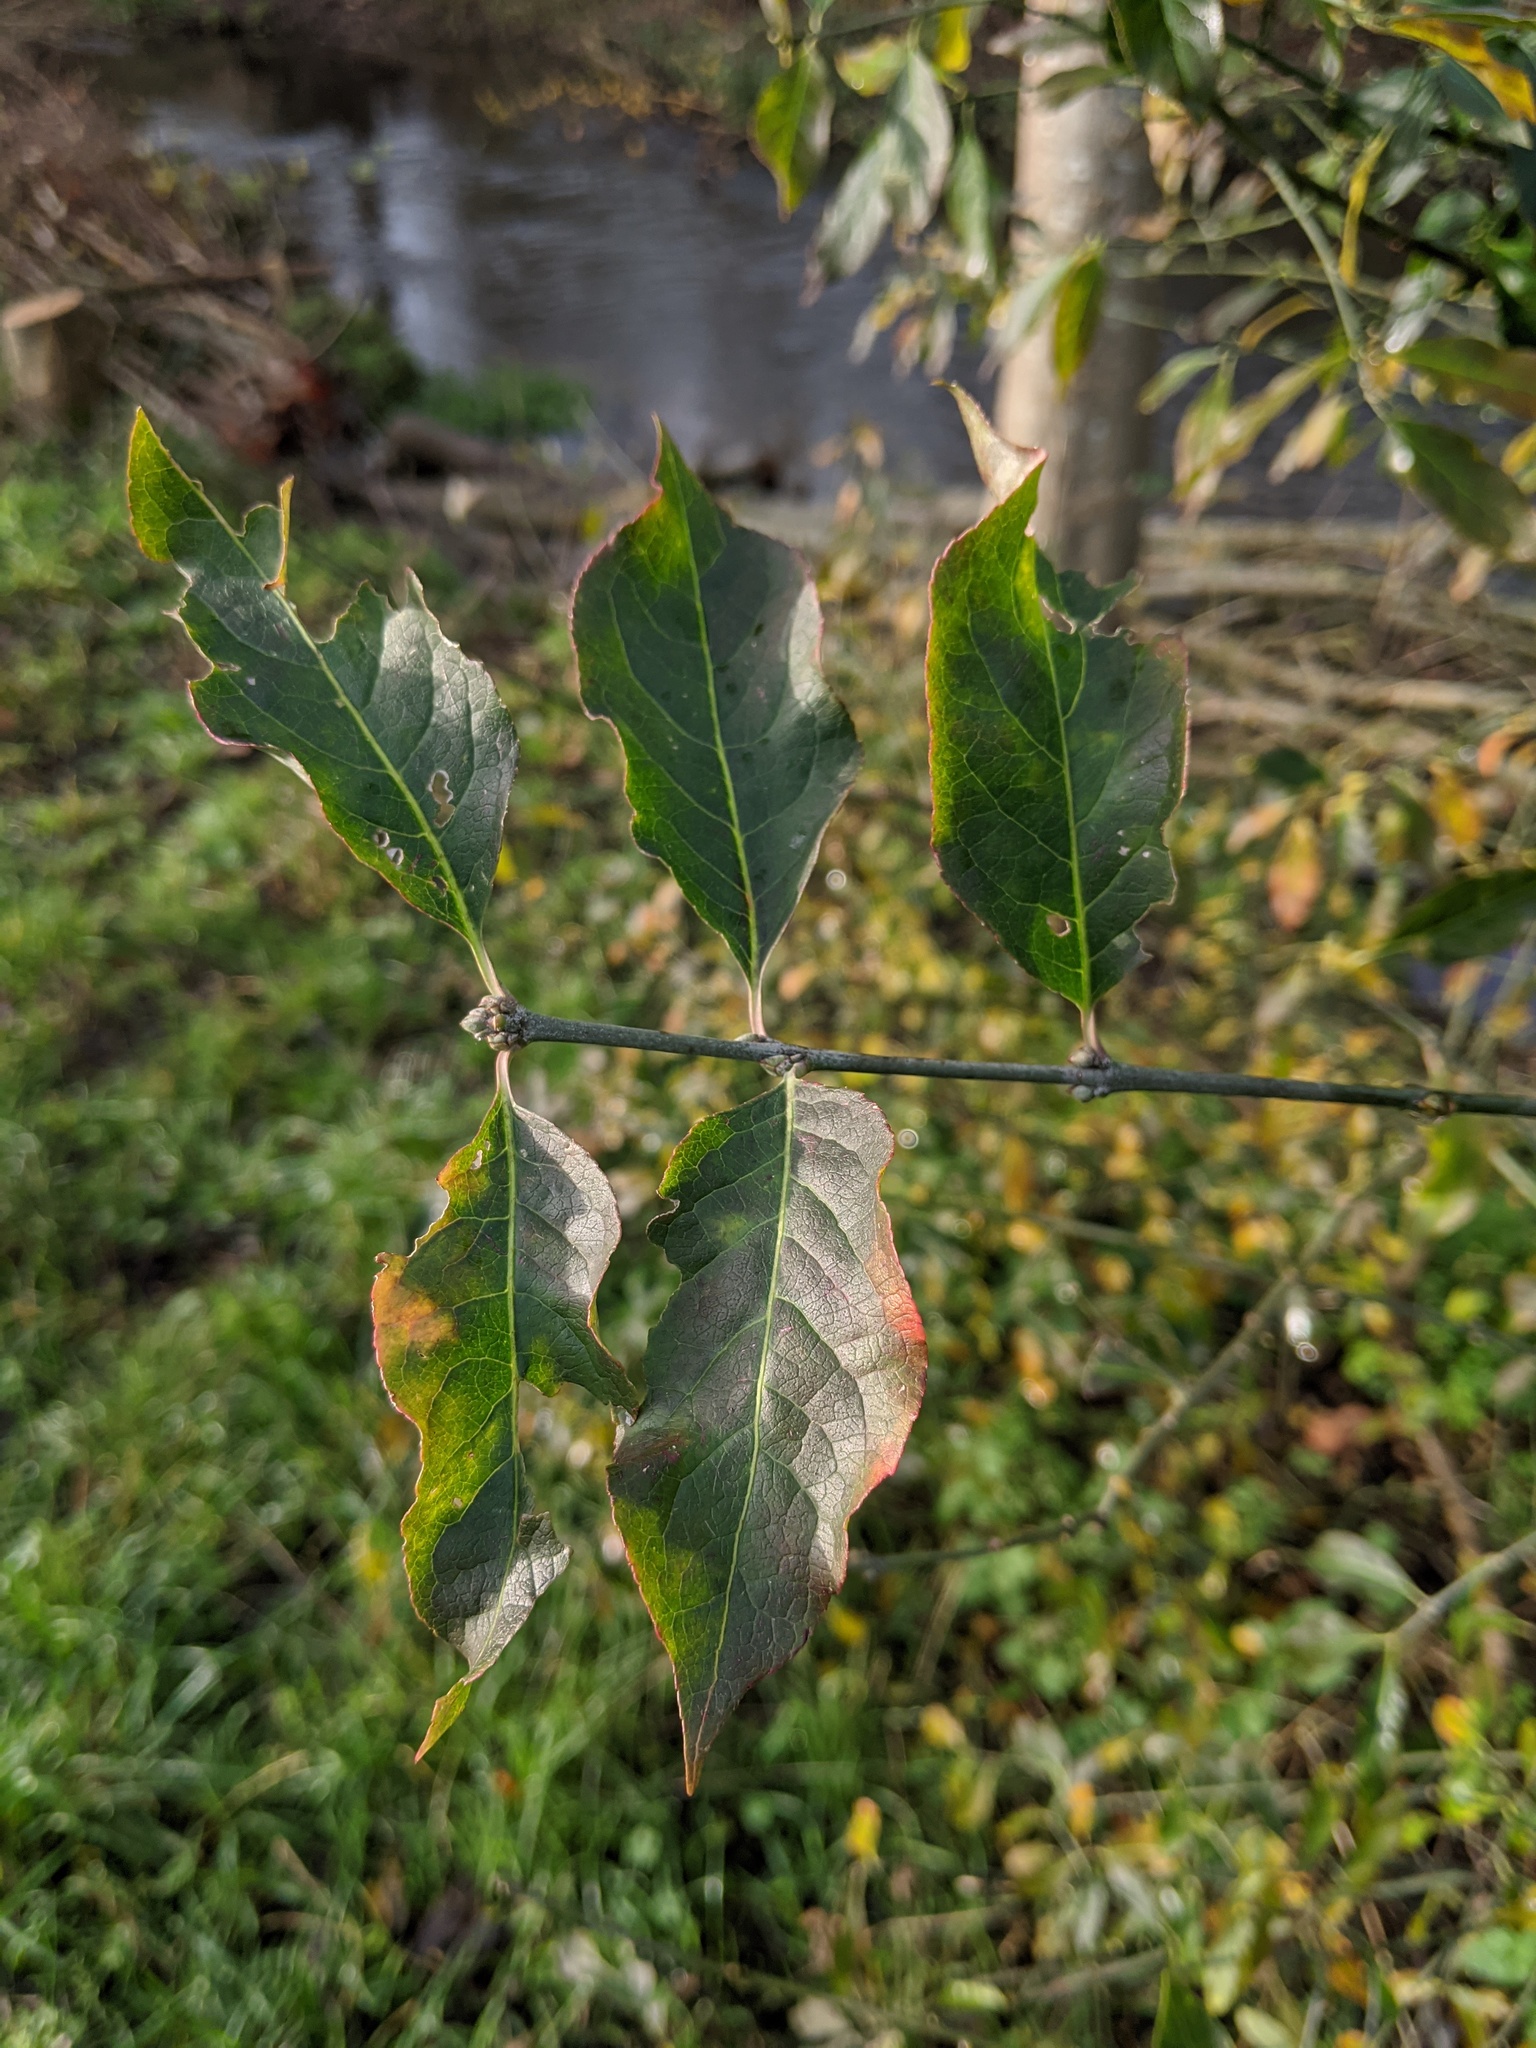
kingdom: Plantae
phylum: Tracheophyta
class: Magnoliopsida
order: Celastrales
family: Celastraceae
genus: Euonymus
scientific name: Euonymus europaeus
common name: Spindle
